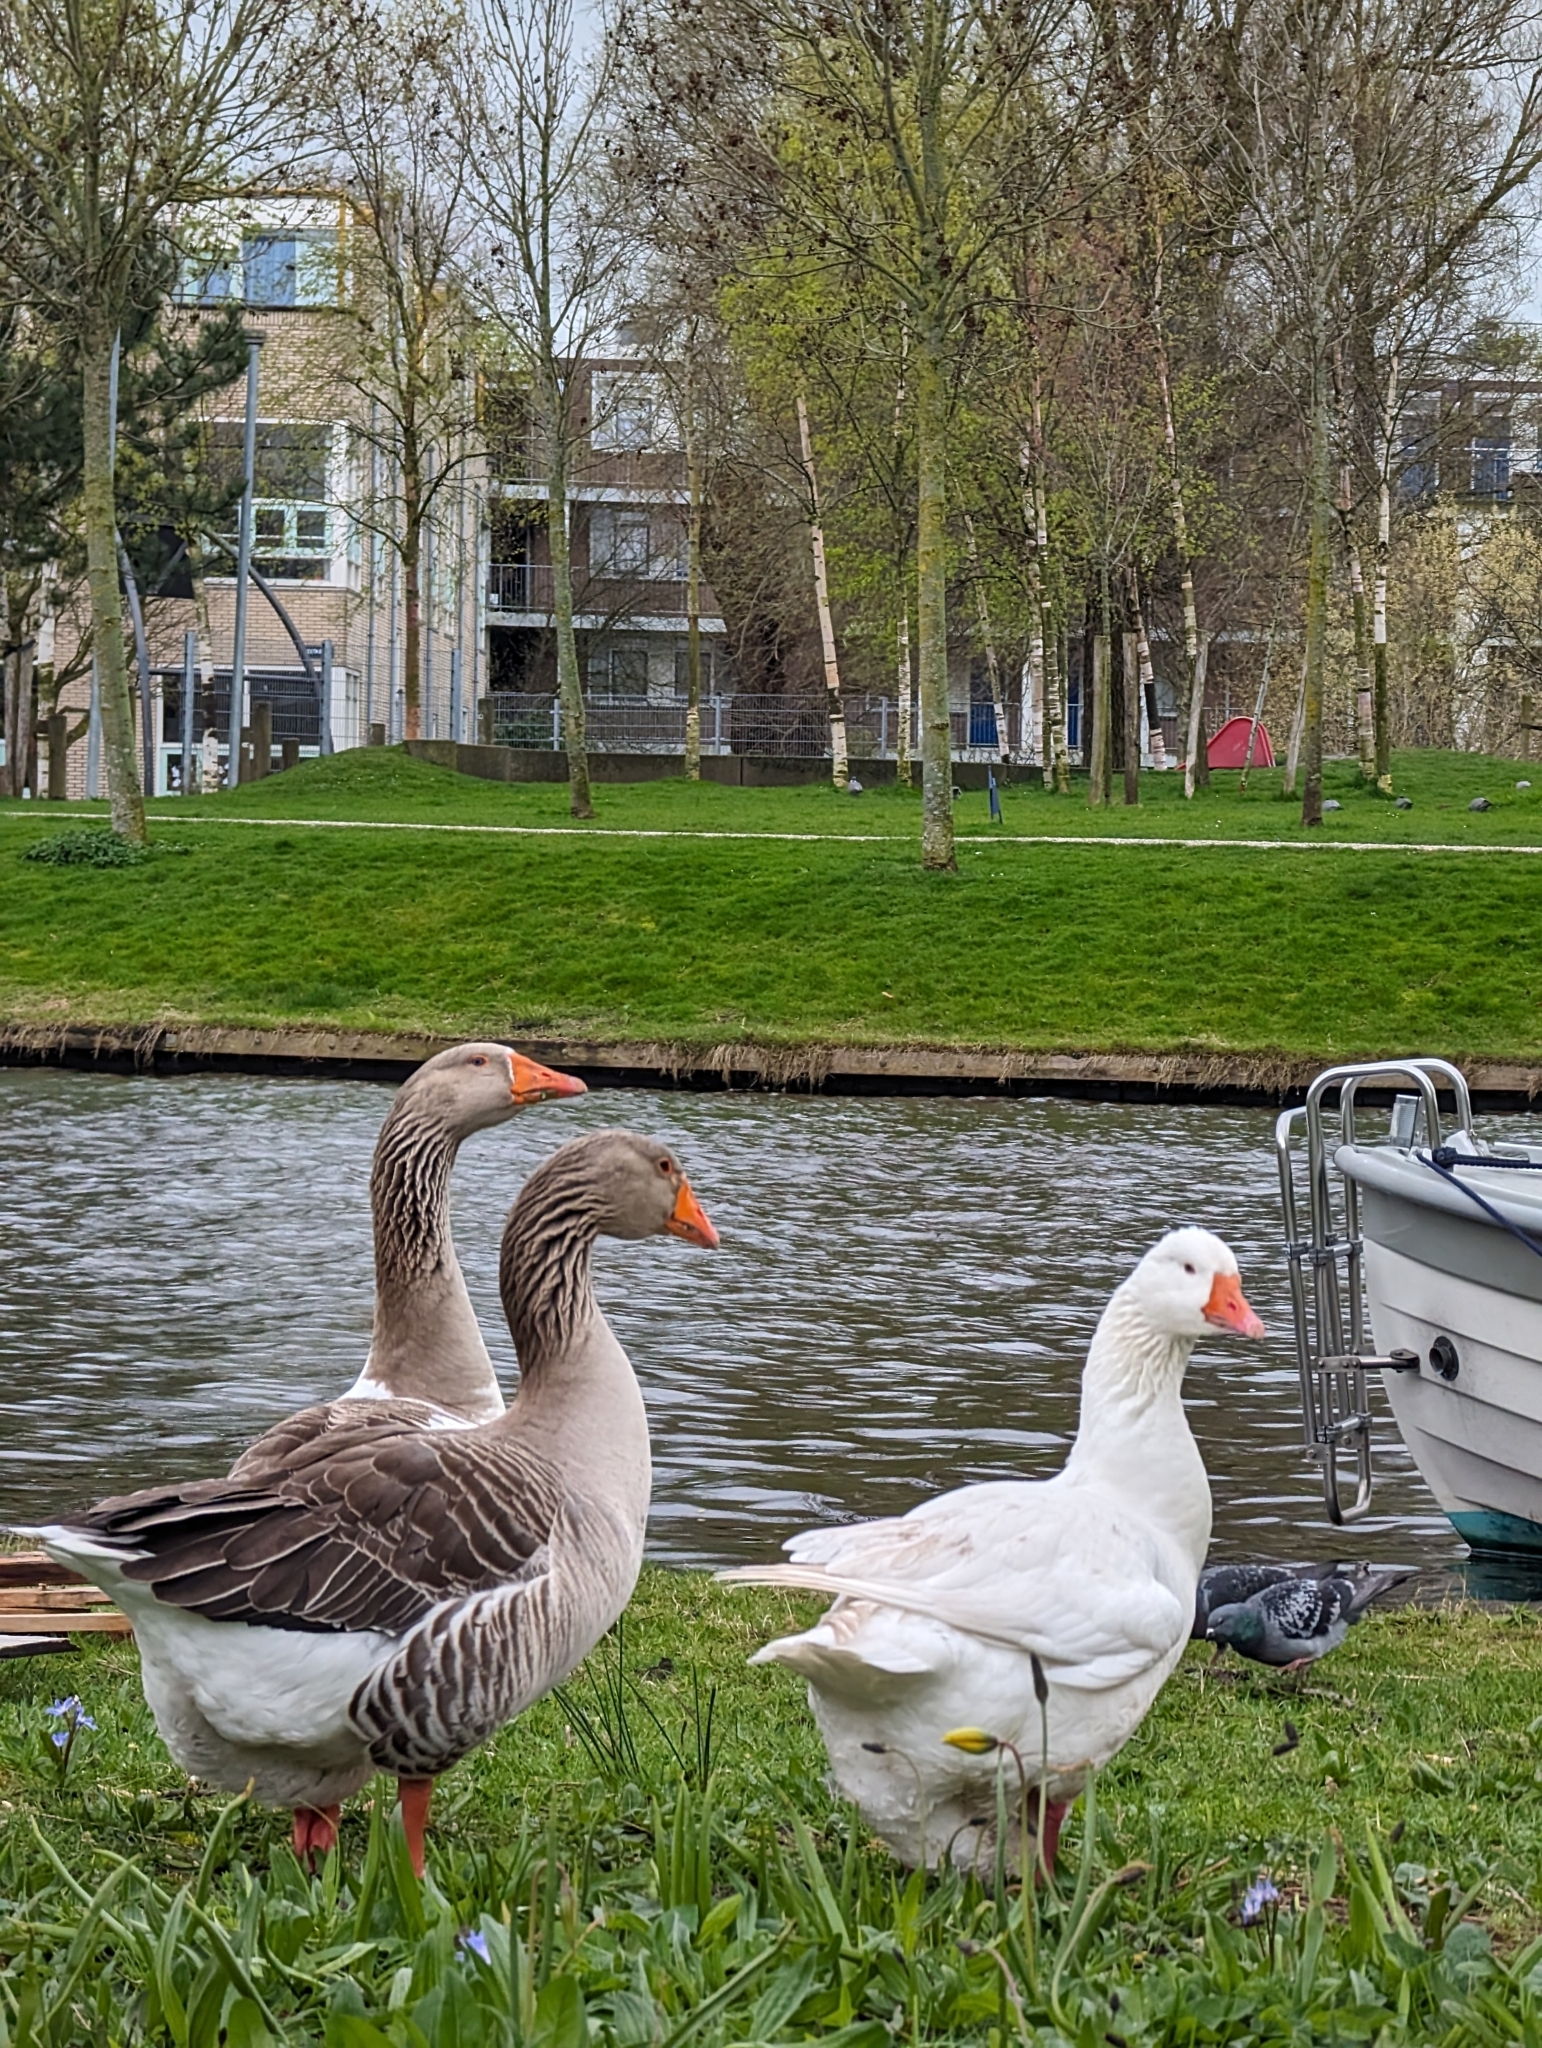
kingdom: Animalia
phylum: Chordata
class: Aves
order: Anseriformes
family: Anatidae
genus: Anser
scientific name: Anser anser
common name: Greylag goose
